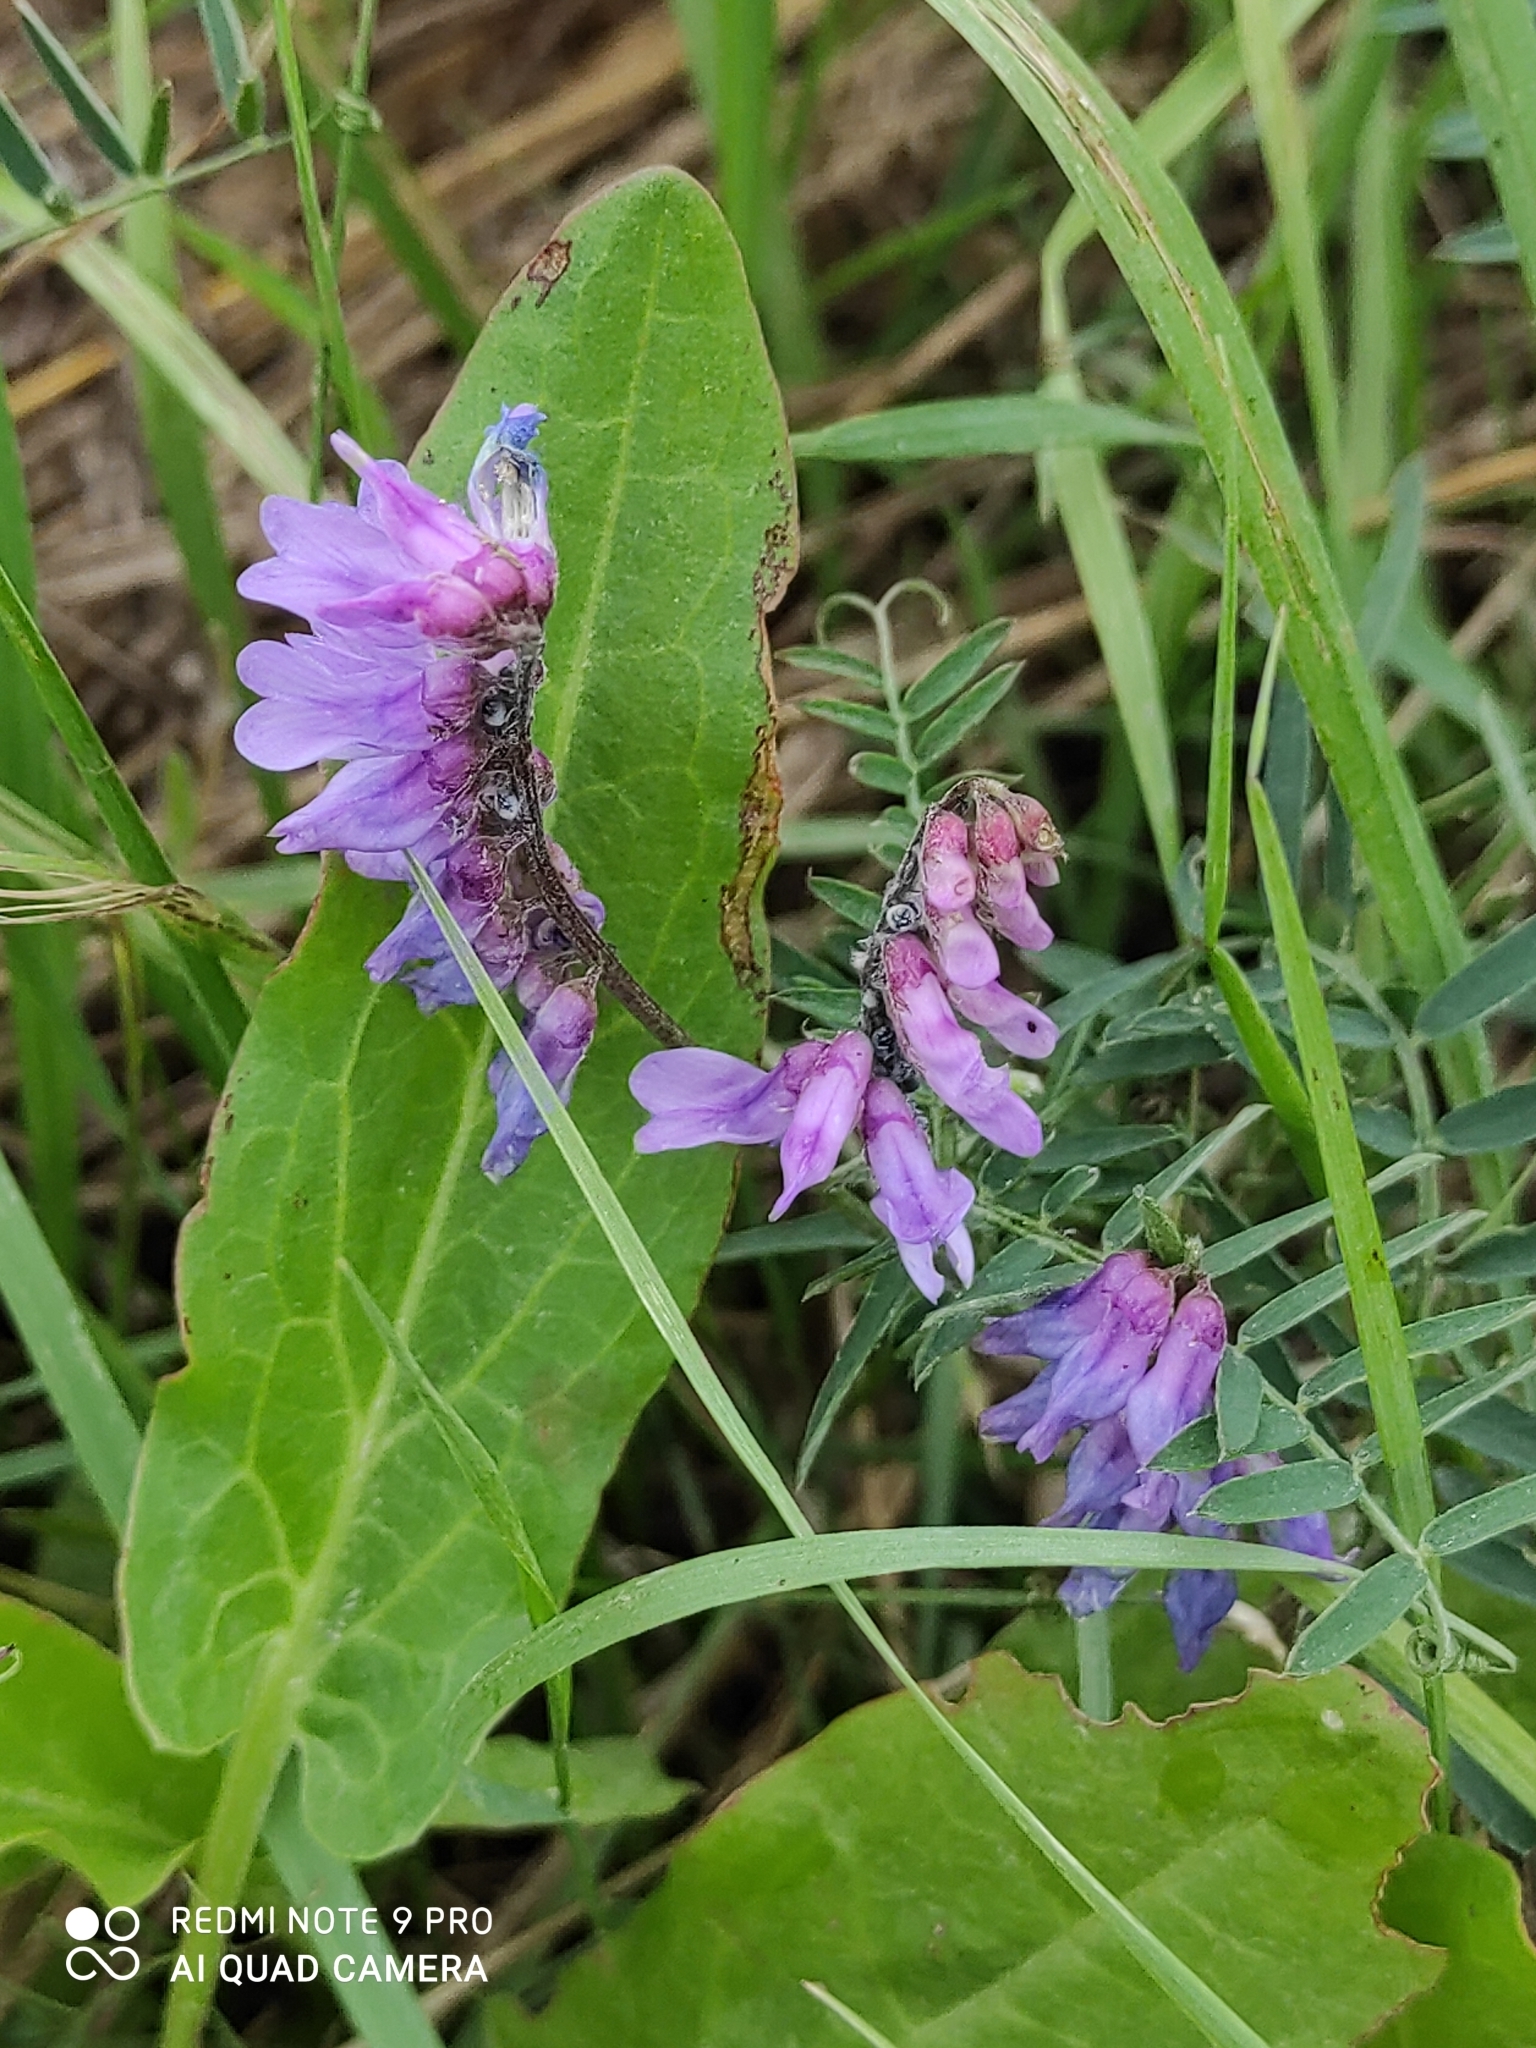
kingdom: Plantae
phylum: Tracheophyta
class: Magnoliopsida
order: Fabales
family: Fabaceae
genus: Vicia
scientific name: Vicia cracca
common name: Bird vetch
